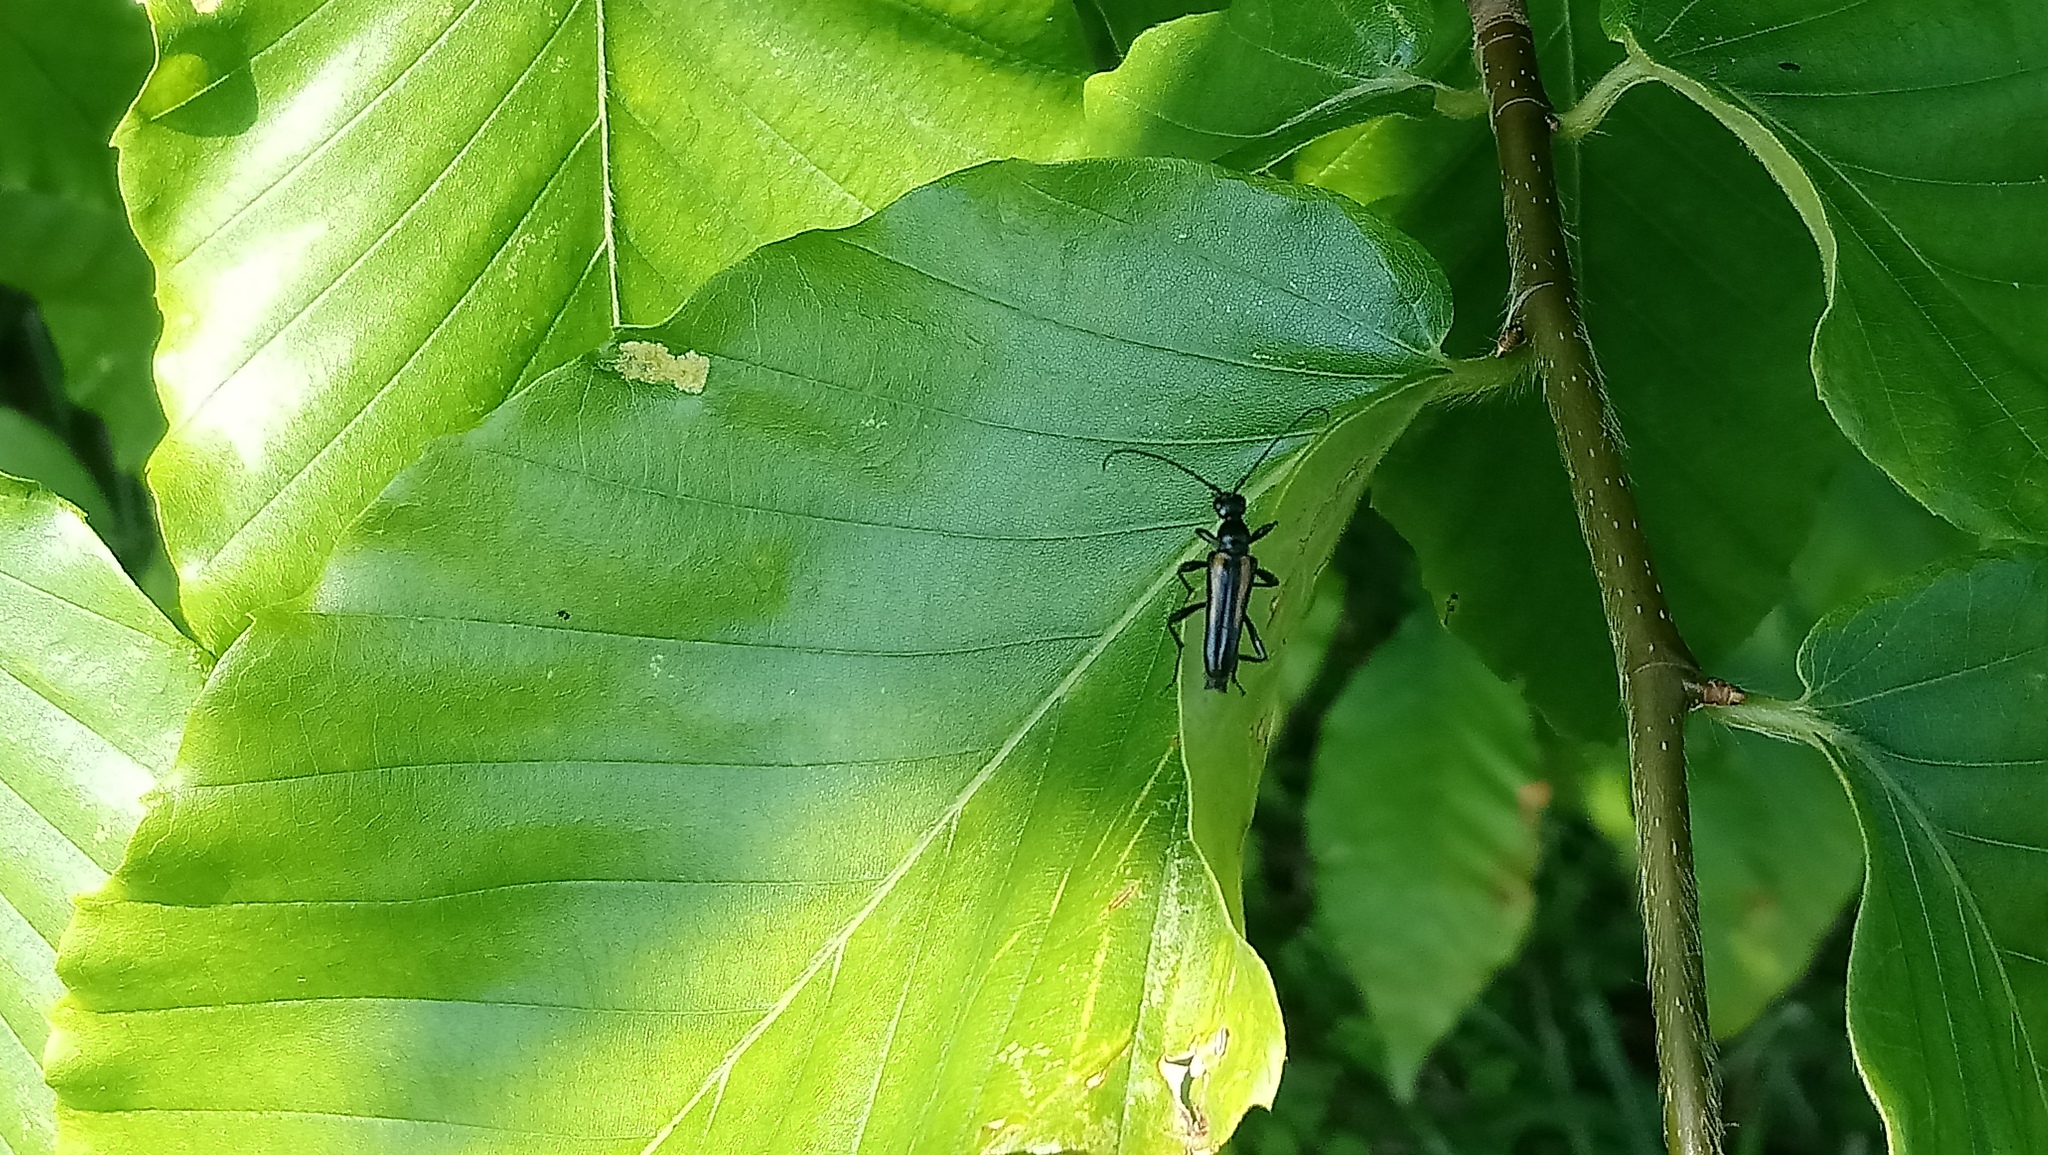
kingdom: Animalia
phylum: Arthropoda
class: Insecta
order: Coleoptera
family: Cerambycidae
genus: Strangalepta
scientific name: Strangalepta abbreviata
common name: Strangalepta flower longhorn beetle
